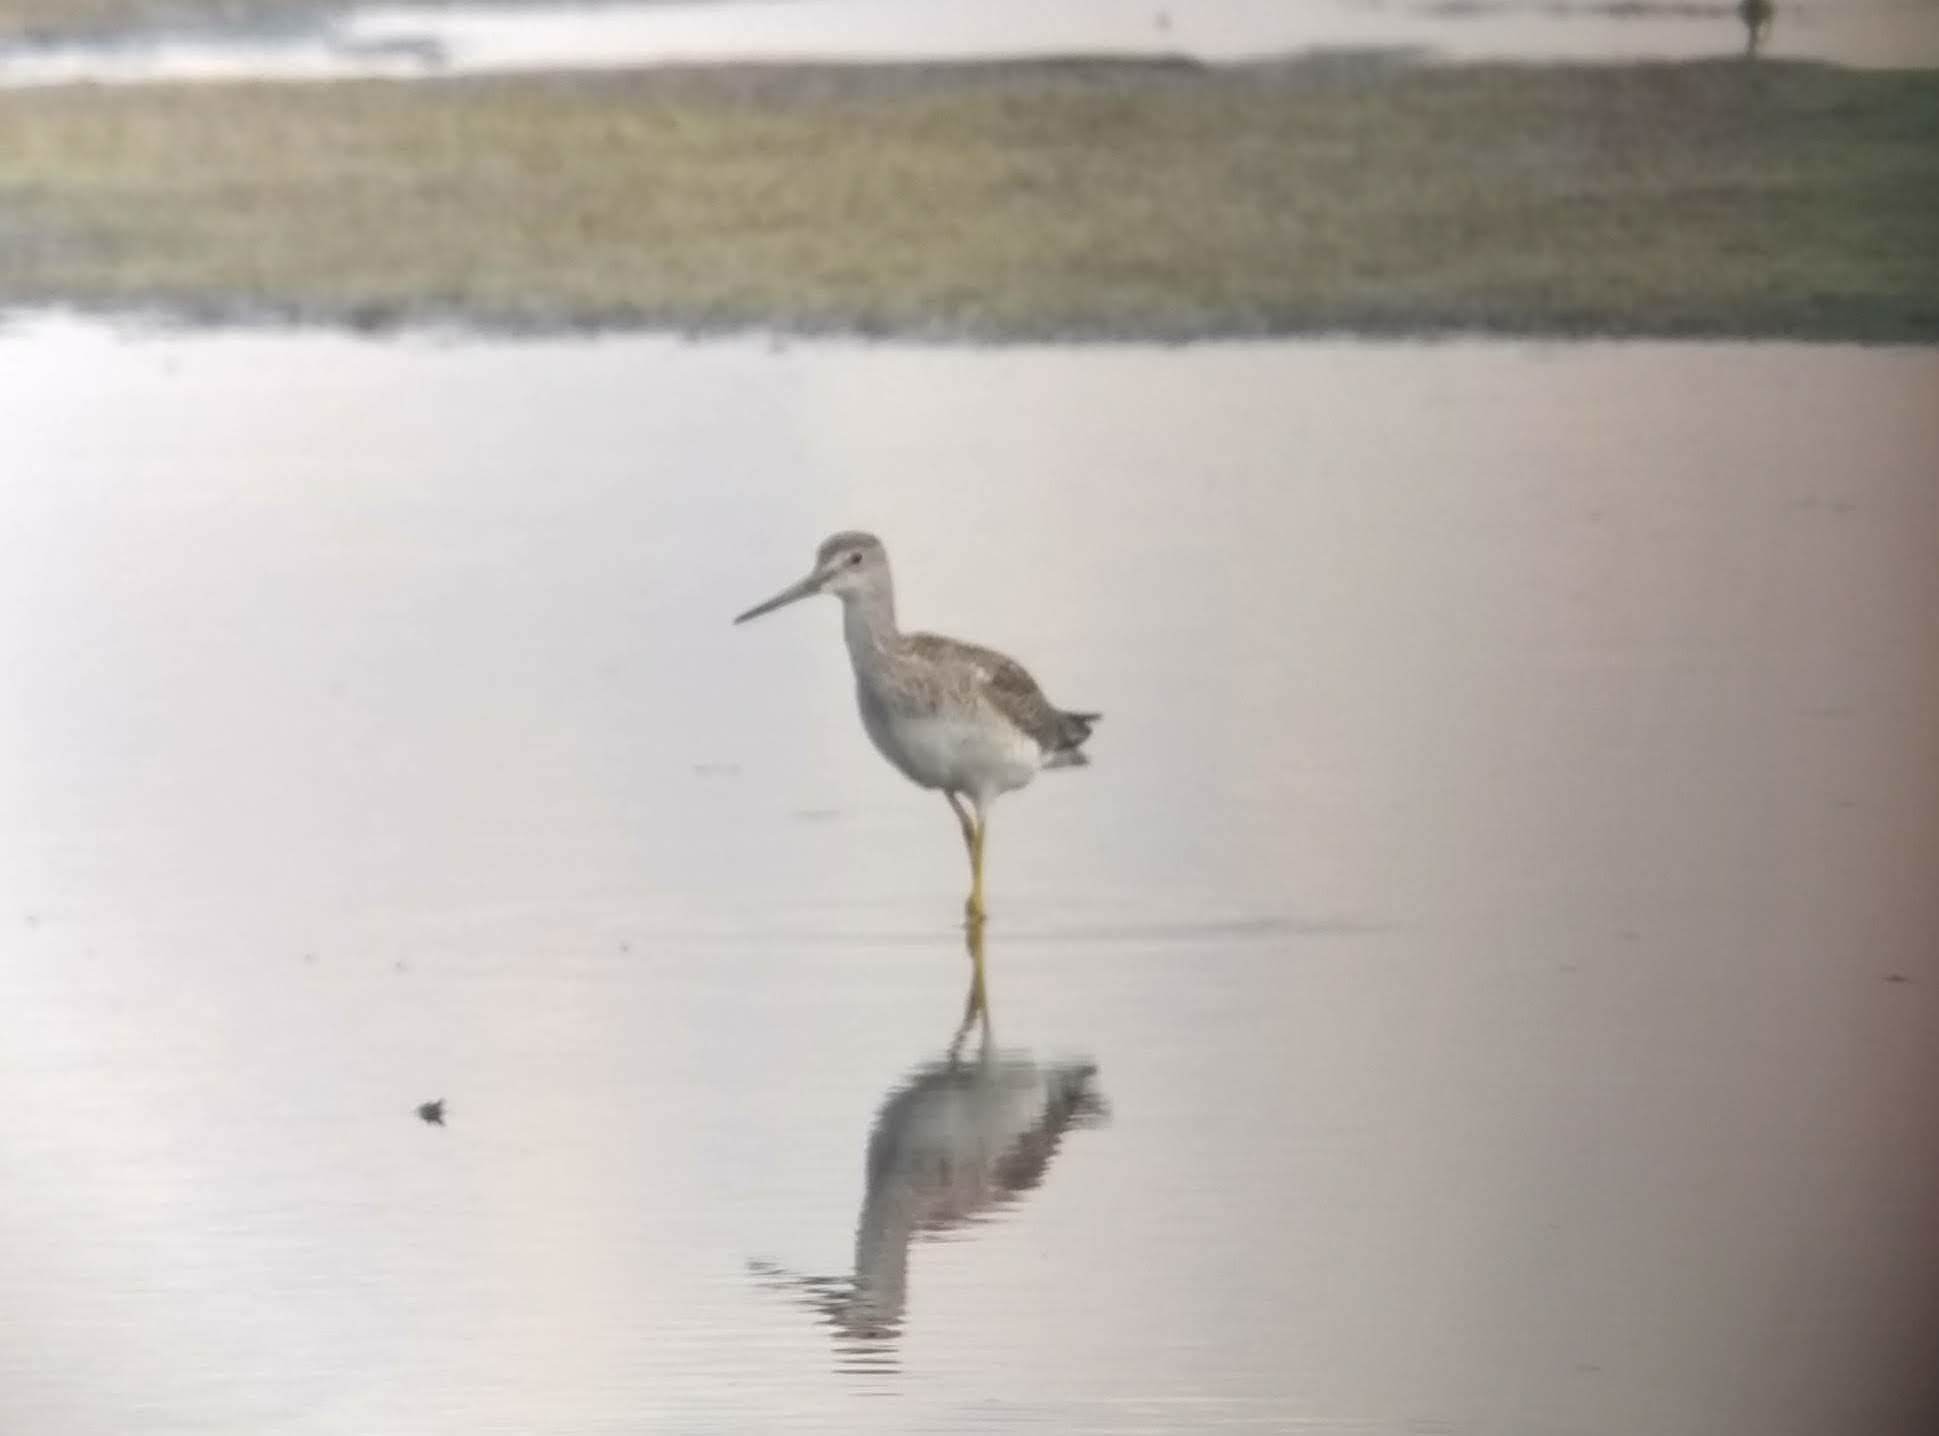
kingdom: Animalia
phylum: Chordata
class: Aves
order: Charadriiformes
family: Scolopacidae
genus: Tringa
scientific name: Tringa melanoleuca
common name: Greater yellowlegs
